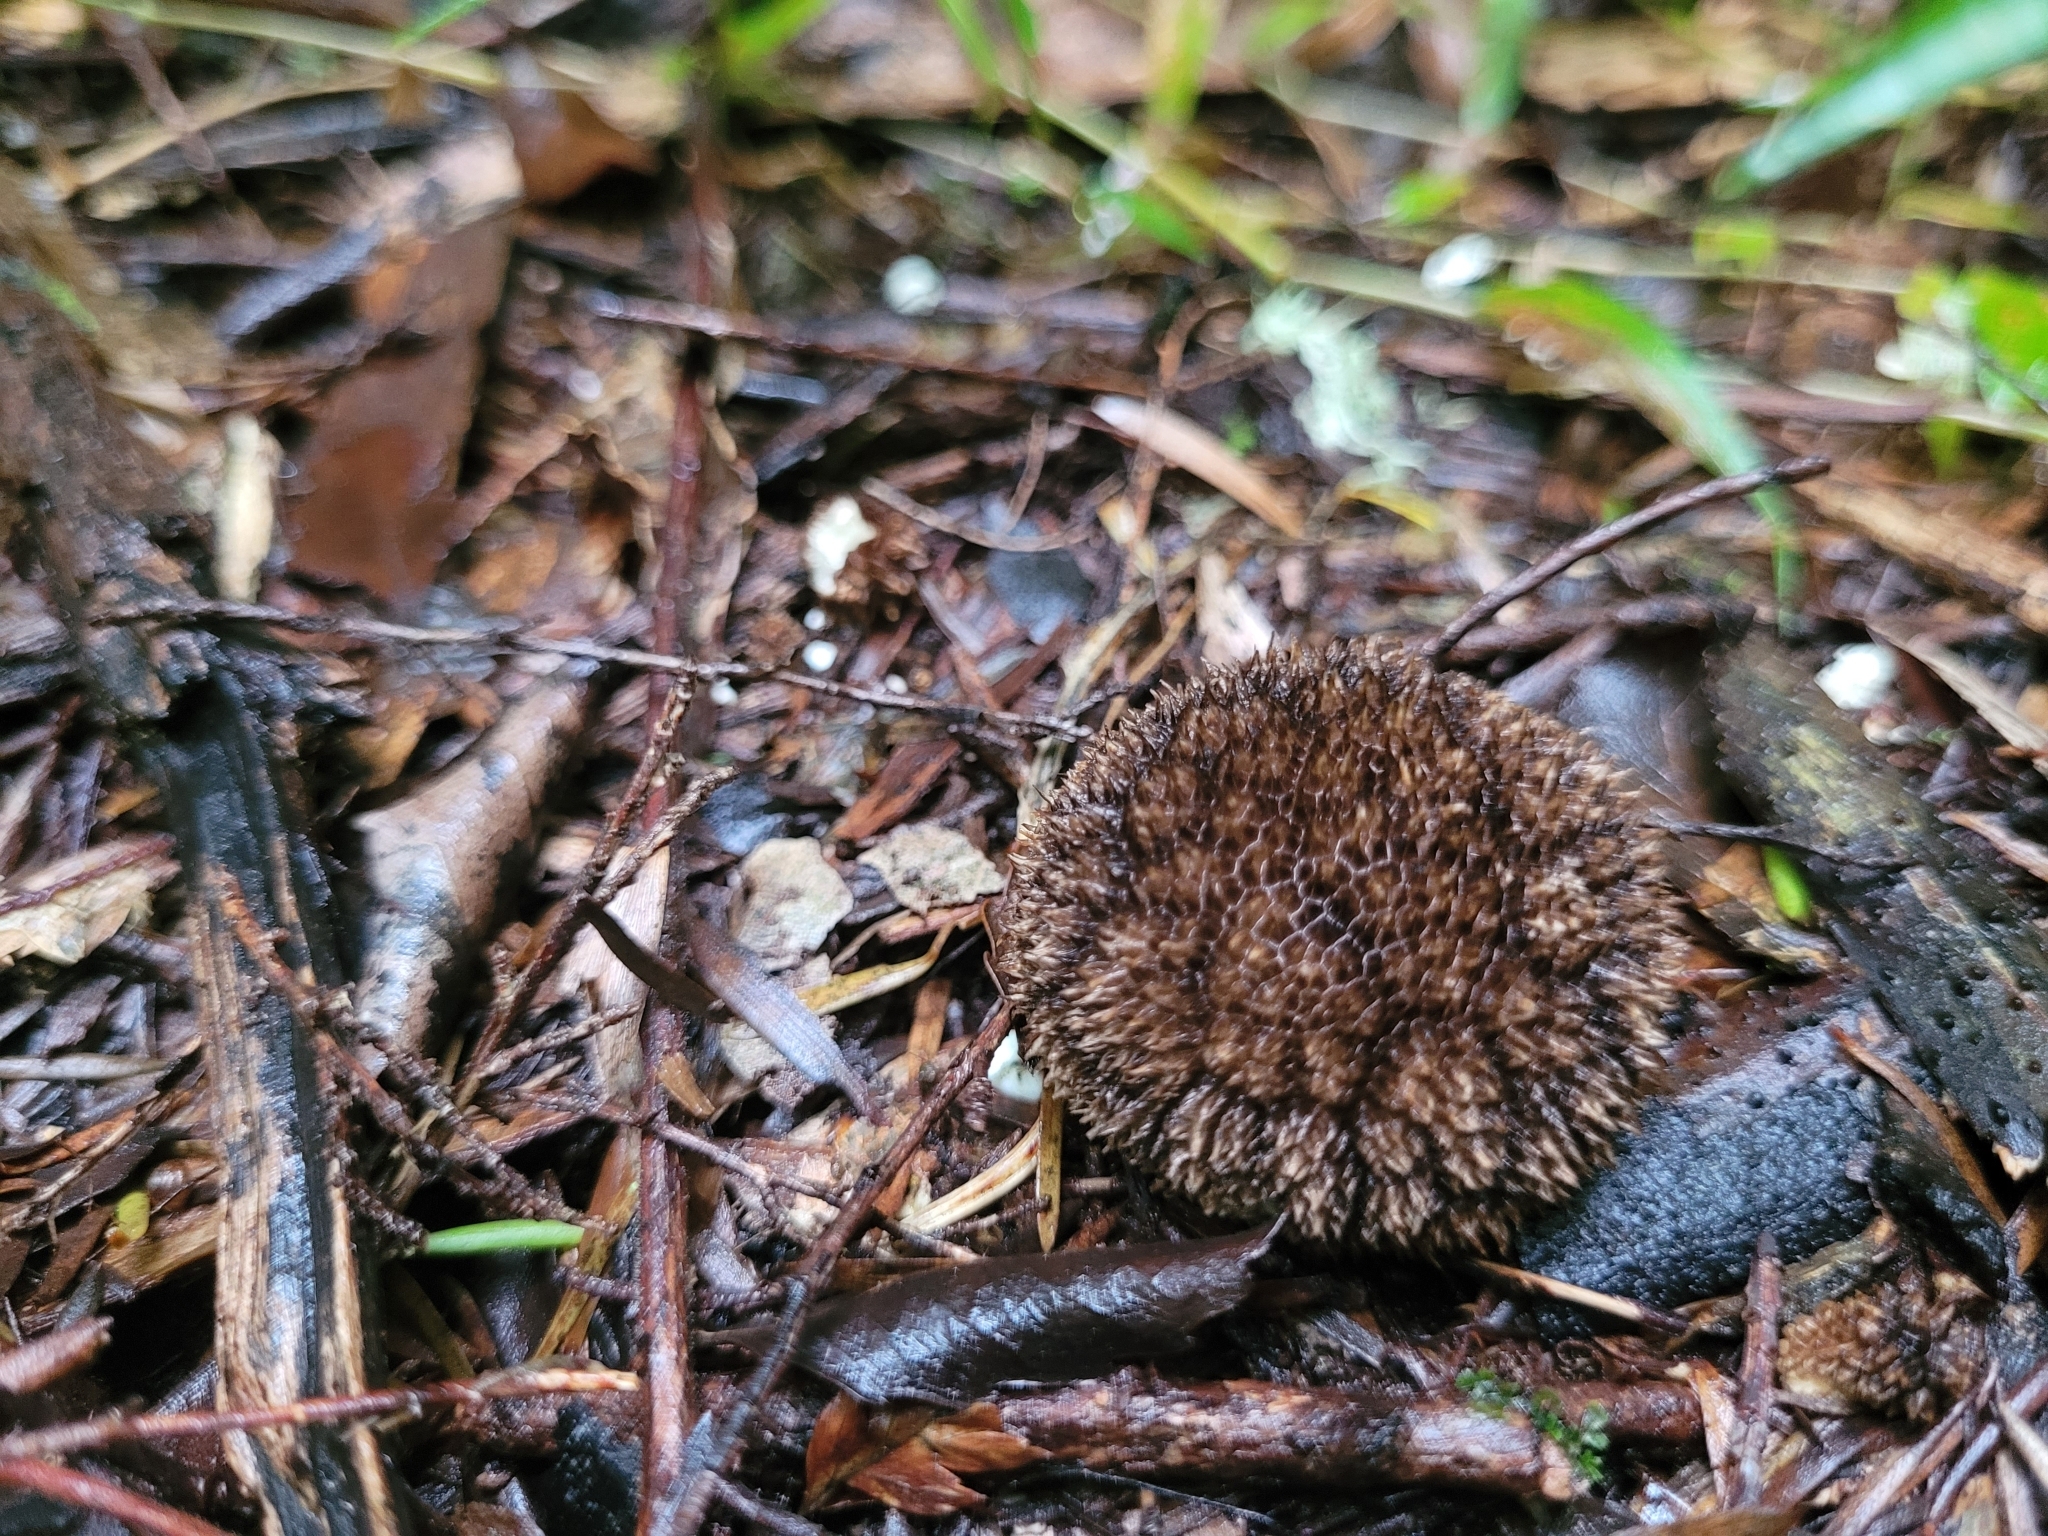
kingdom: Fungi
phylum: Basidiomycota
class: Agaricomycetes
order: Agaricales
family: Lycoperdaceae
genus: Lycoperdon
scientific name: Lycoperdon compactum
